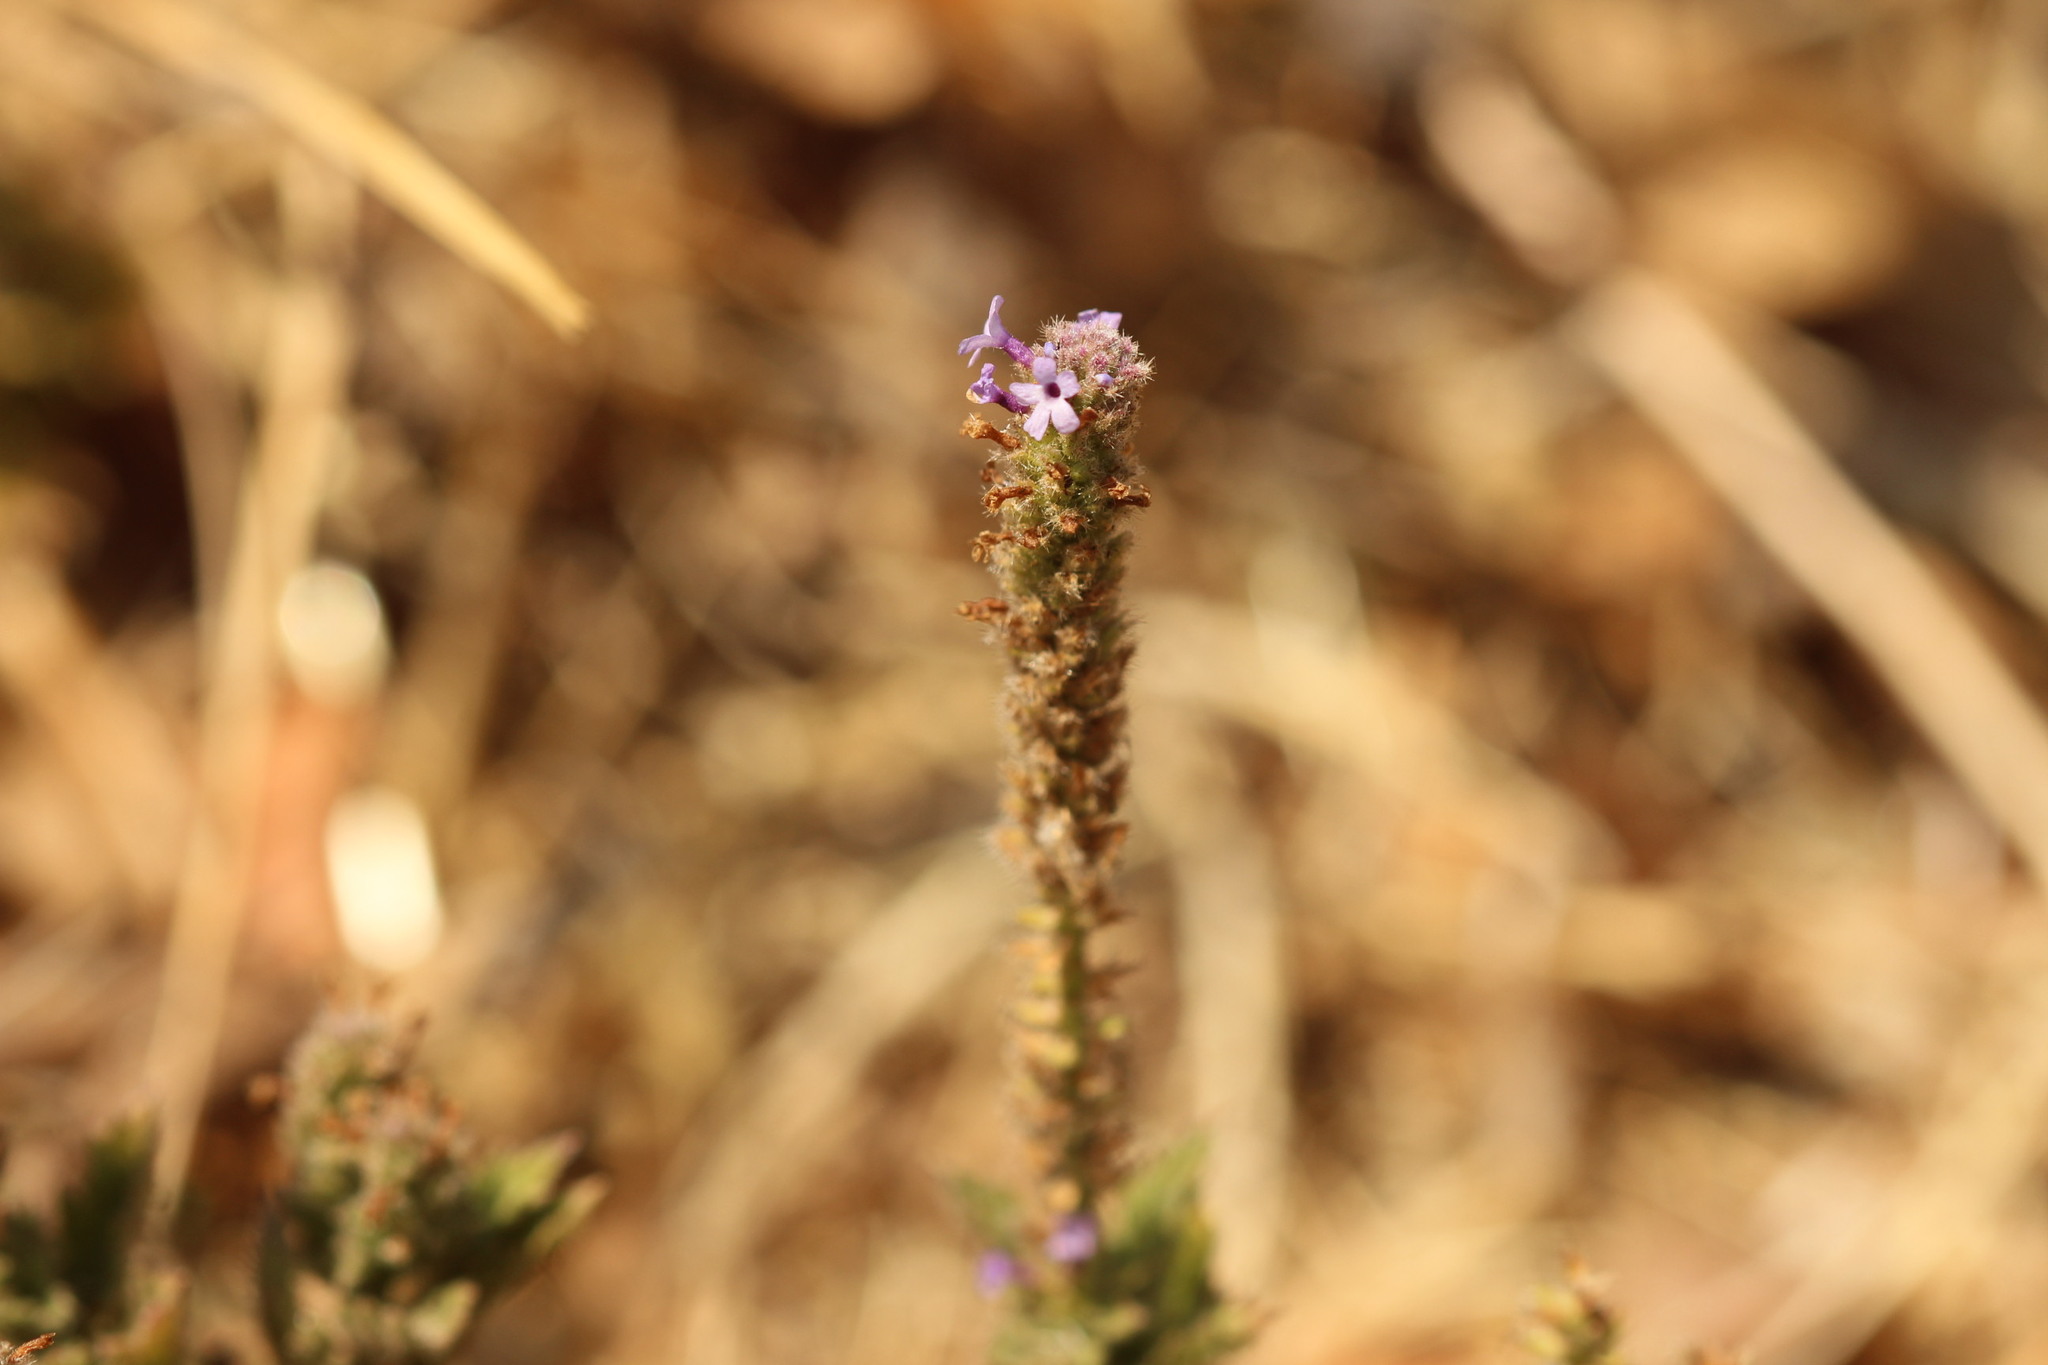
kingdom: Plantae
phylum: Tracheophyta
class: Magnoliopsida
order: Lamiales
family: Verbenaceae
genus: Verbena
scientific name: Verbena lasiostachys
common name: Vervain
